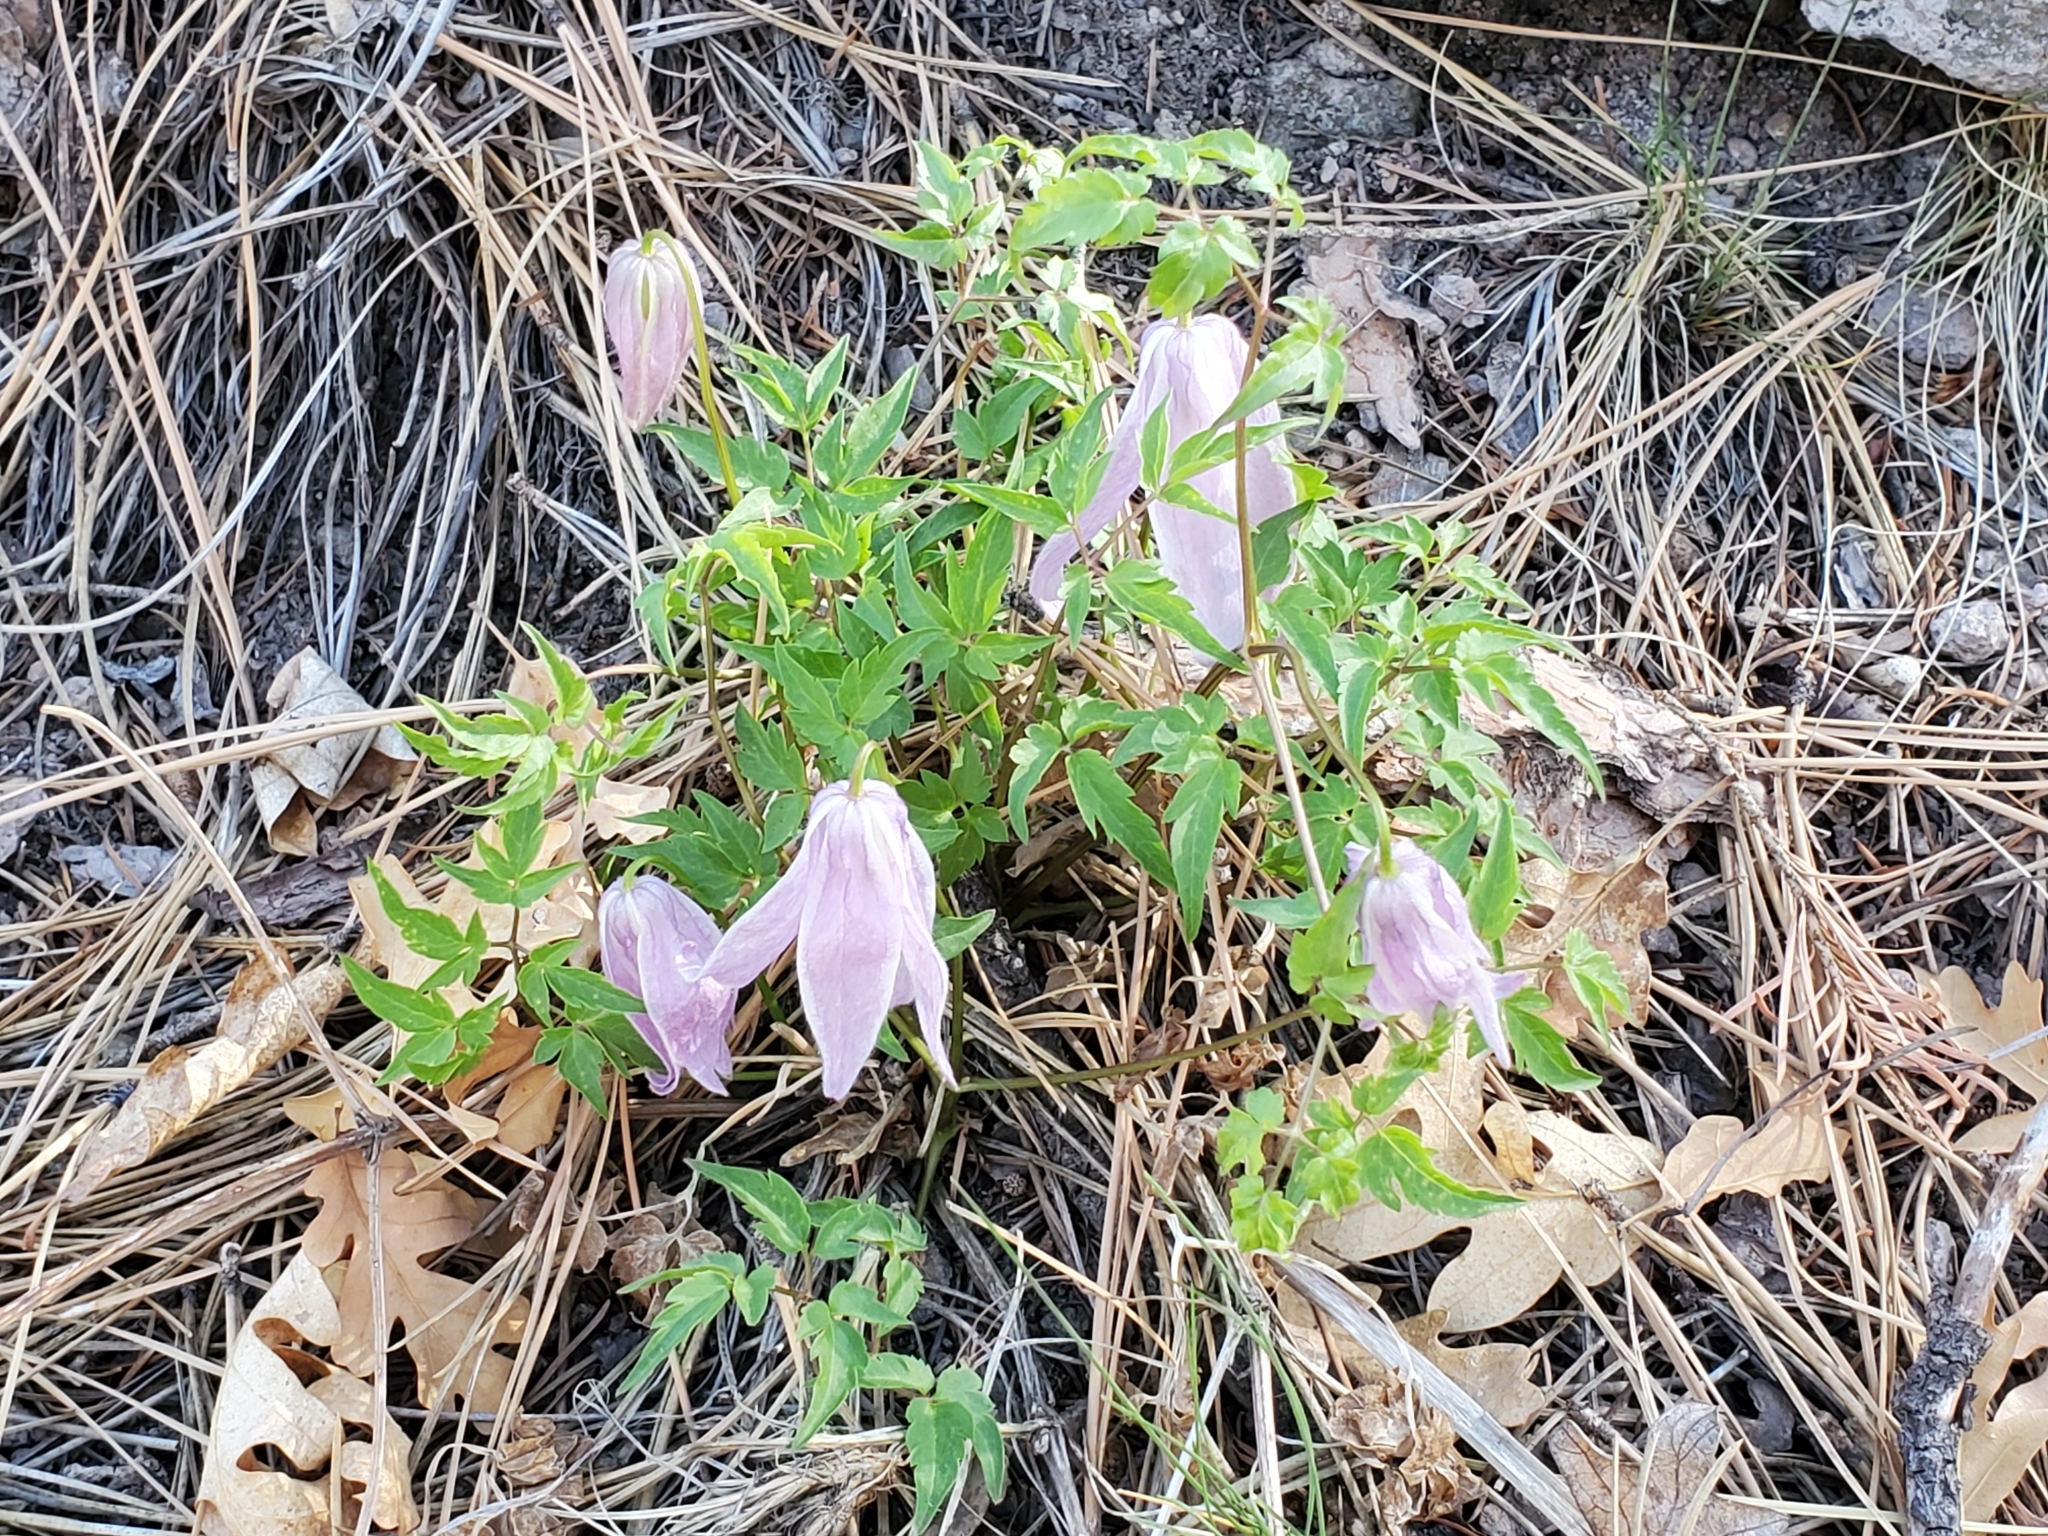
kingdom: Plantae
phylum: Tracheophyta
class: Magnoliopsida
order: Ranunculales
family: Ranunculaceae
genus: Clematis
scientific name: Clematis columbiana
